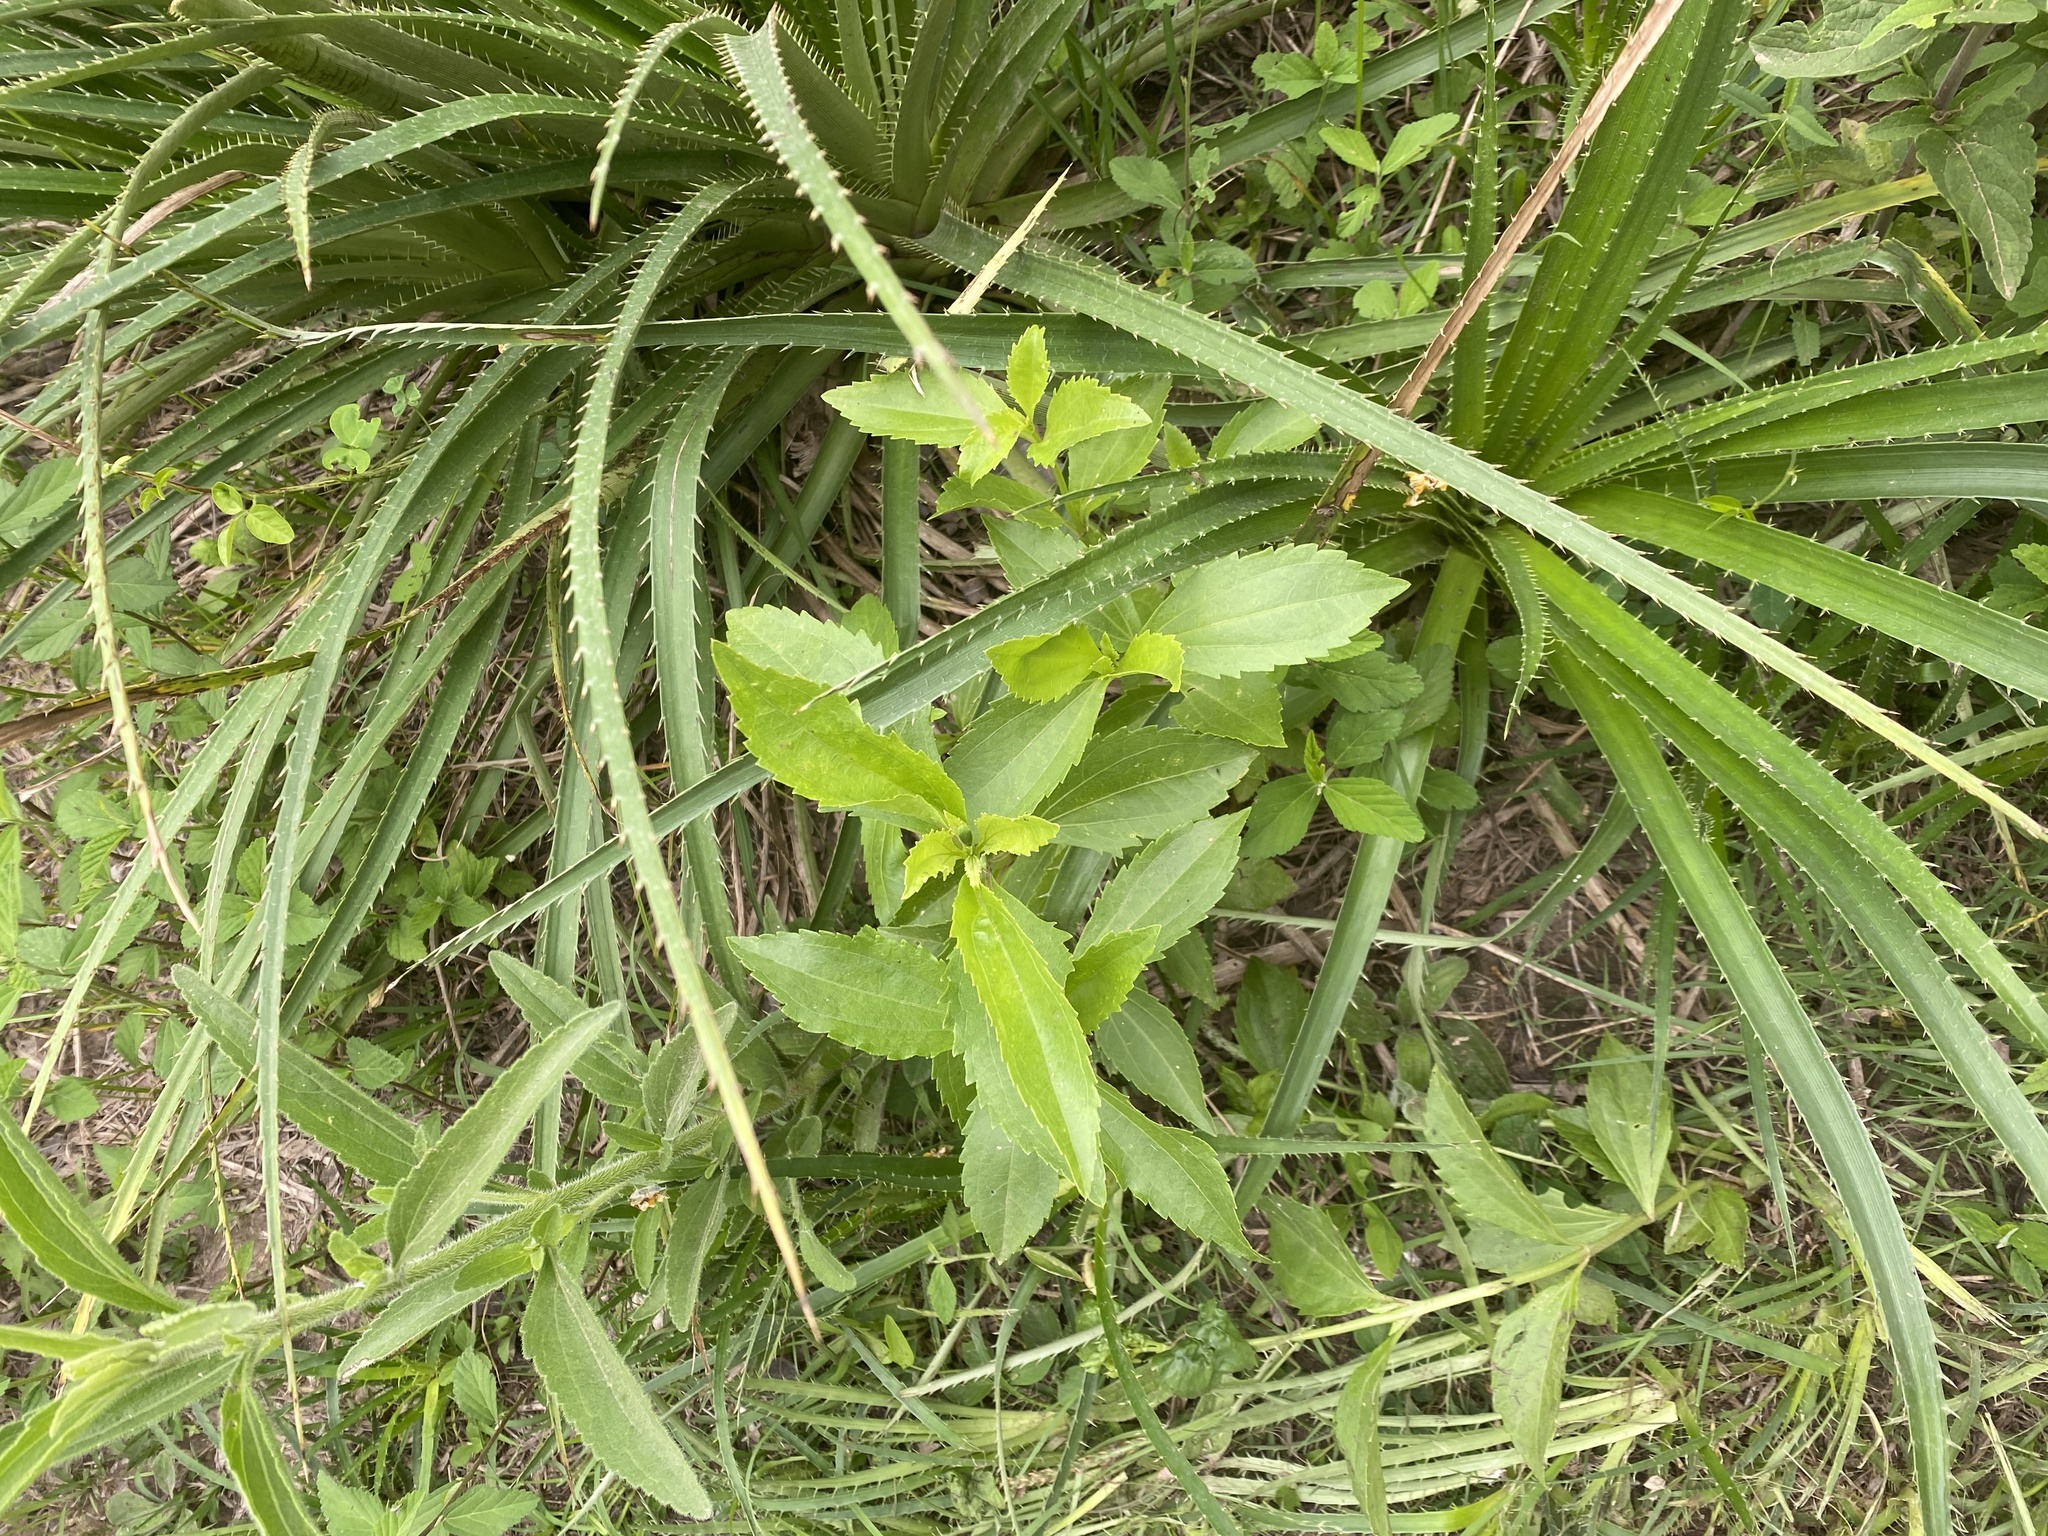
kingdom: Plantae
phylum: Tracheophyta
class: Magnoliopsida
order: Asterales
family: Asteraceae
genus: Chromolaena
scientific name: Chromolaena laevigata
